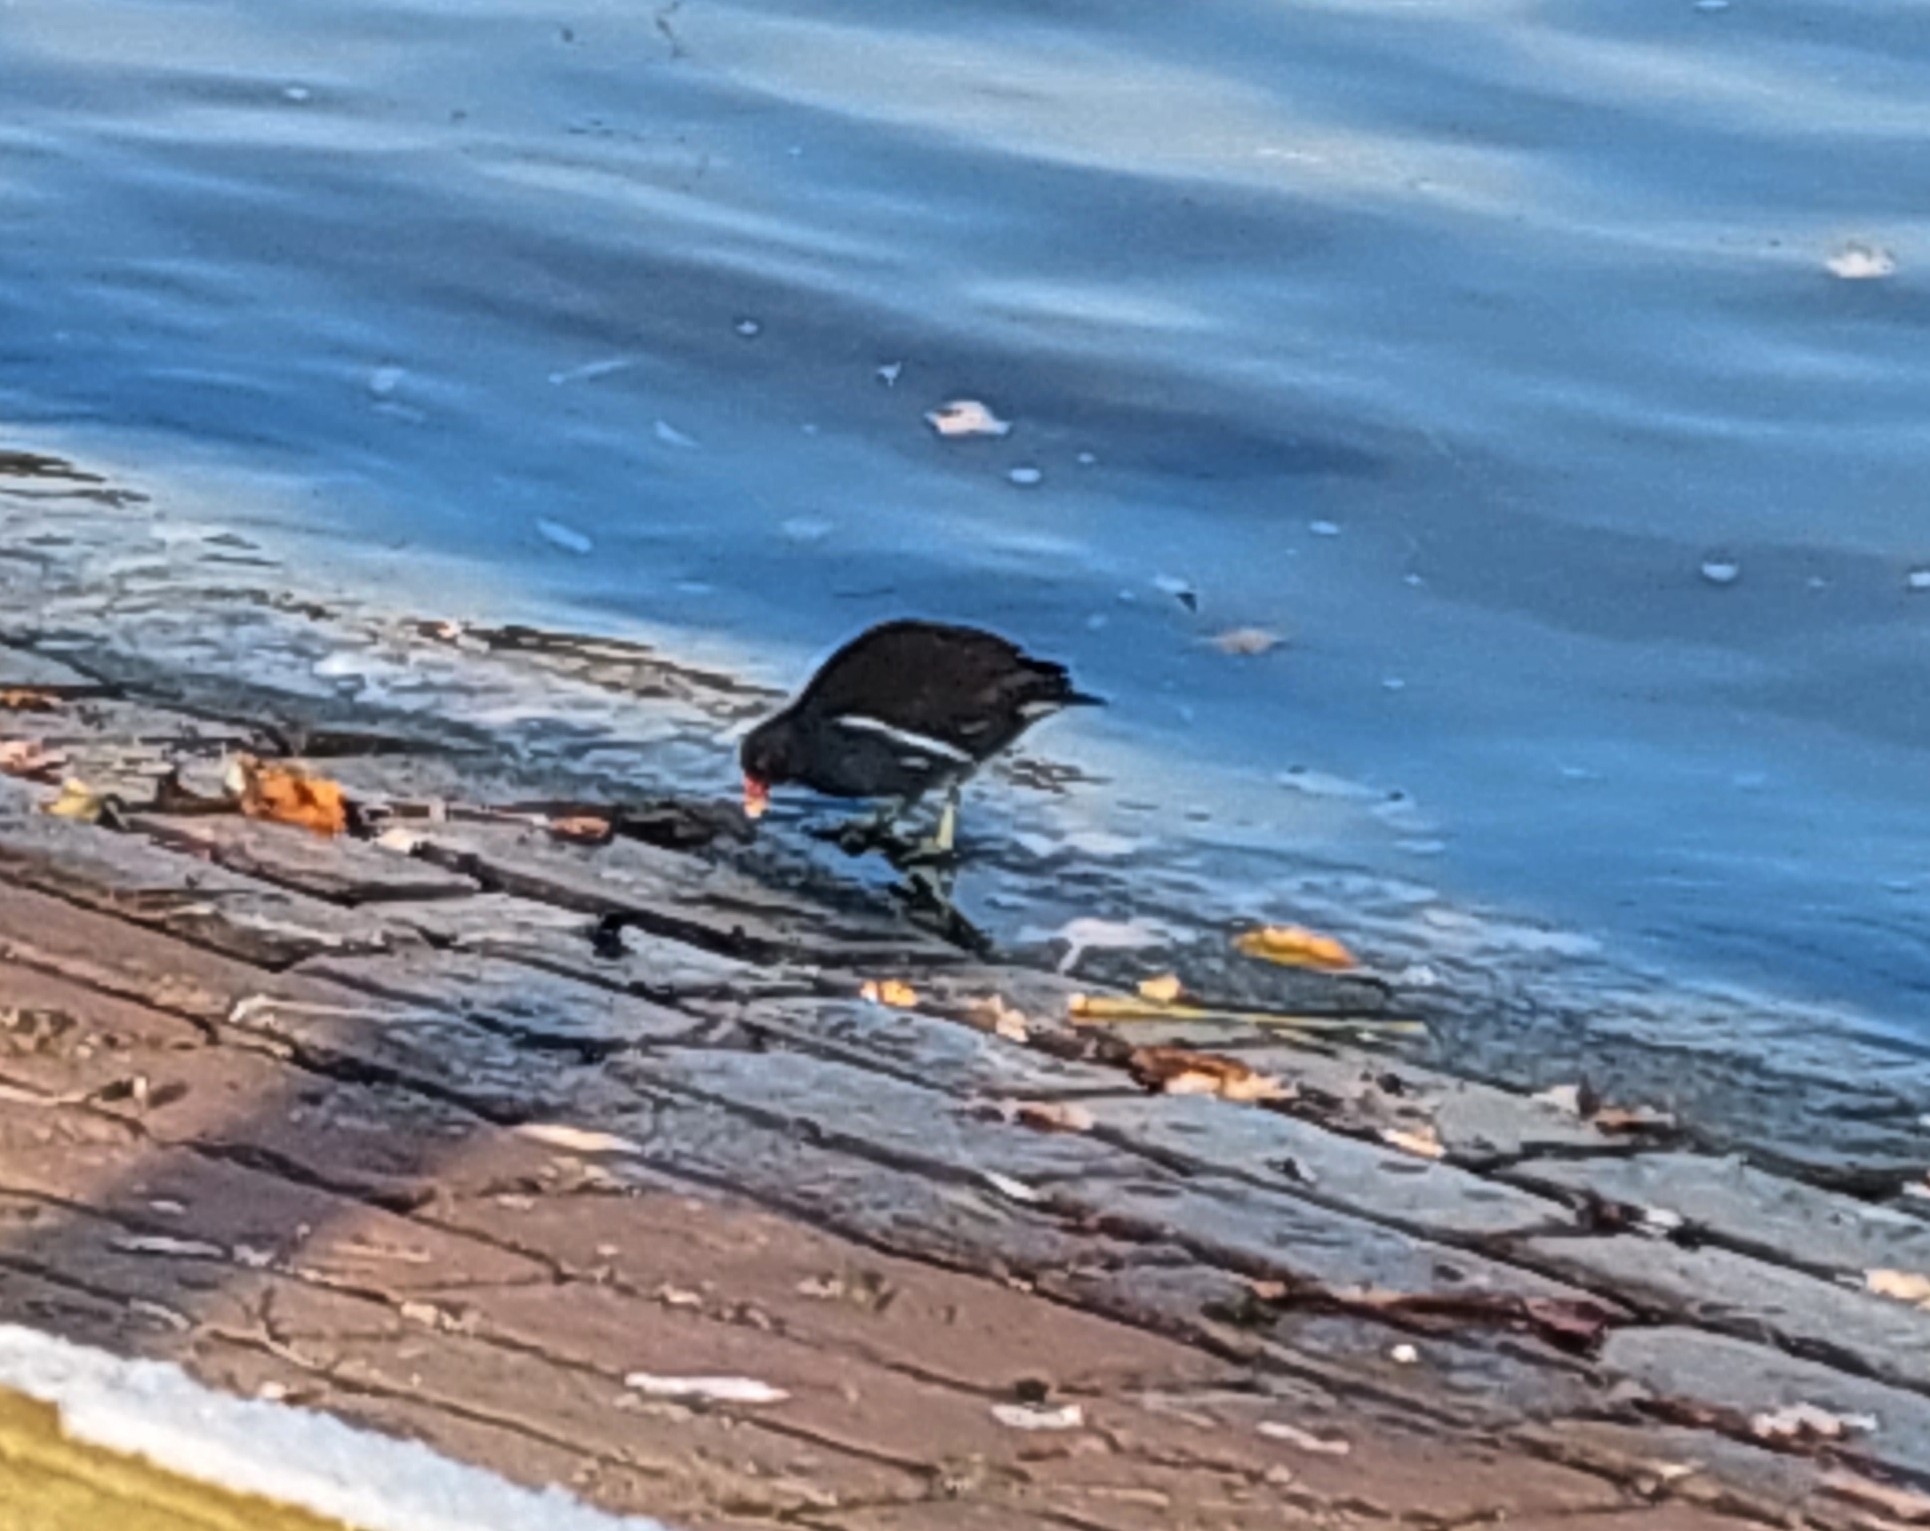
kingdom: Animalia
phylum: Chordata
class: Aves
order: Gruiformes
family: Rallidae
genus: Gallinula
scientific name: Gallinula chloropus
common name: Common moorhen
